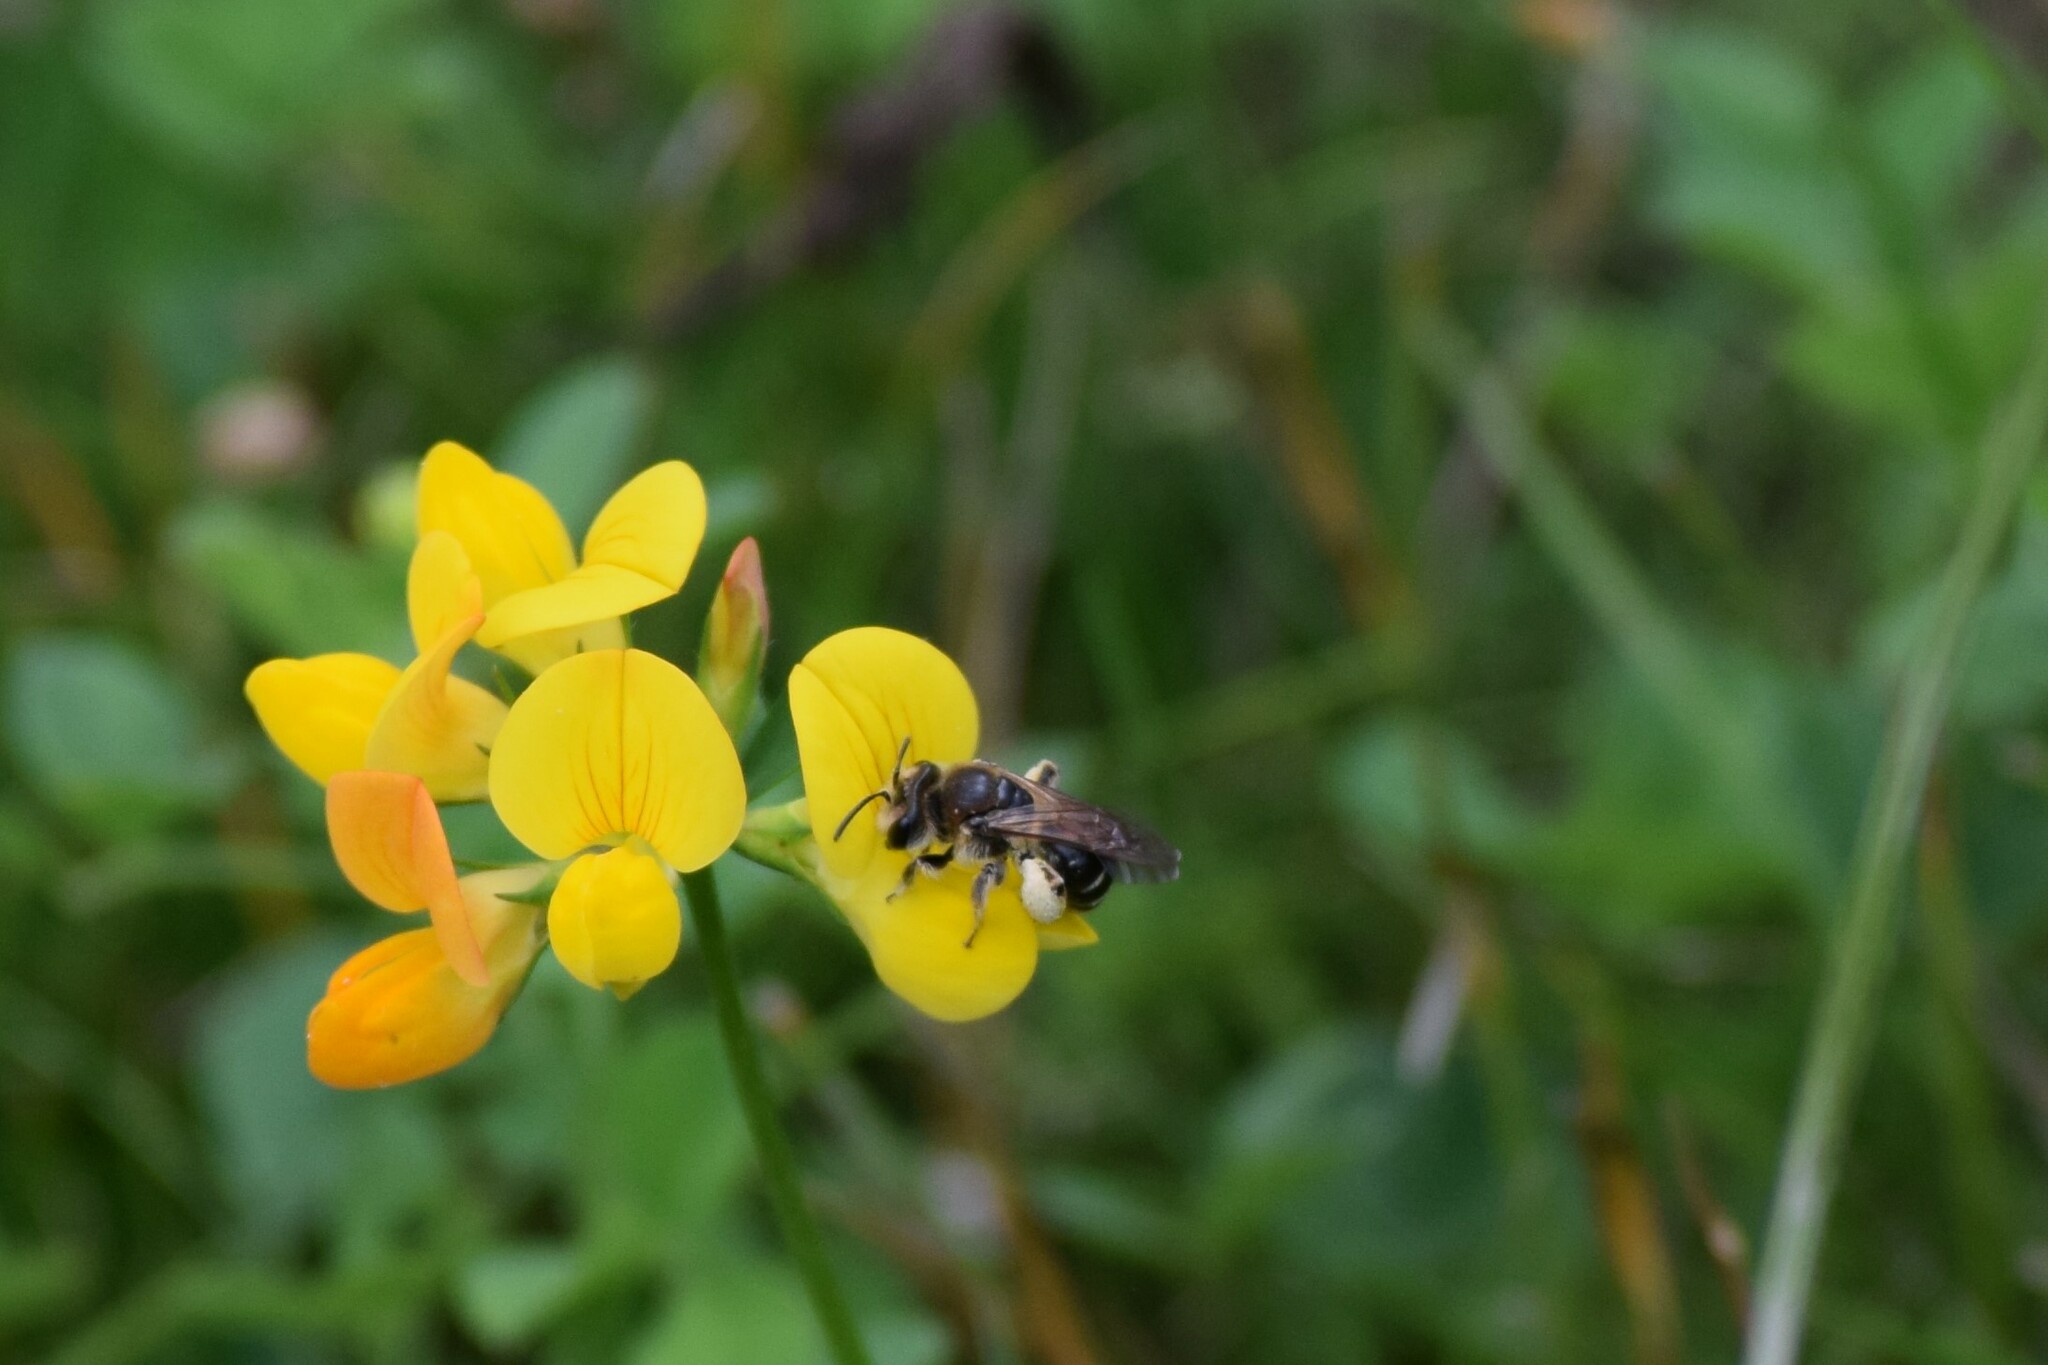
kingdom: Animalia
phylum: Arthropoda
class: Insecta
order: Hymenoptera
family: Andrenidae
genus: Andrena
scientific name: Andrena wilkella
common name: Wilke's mining bee
